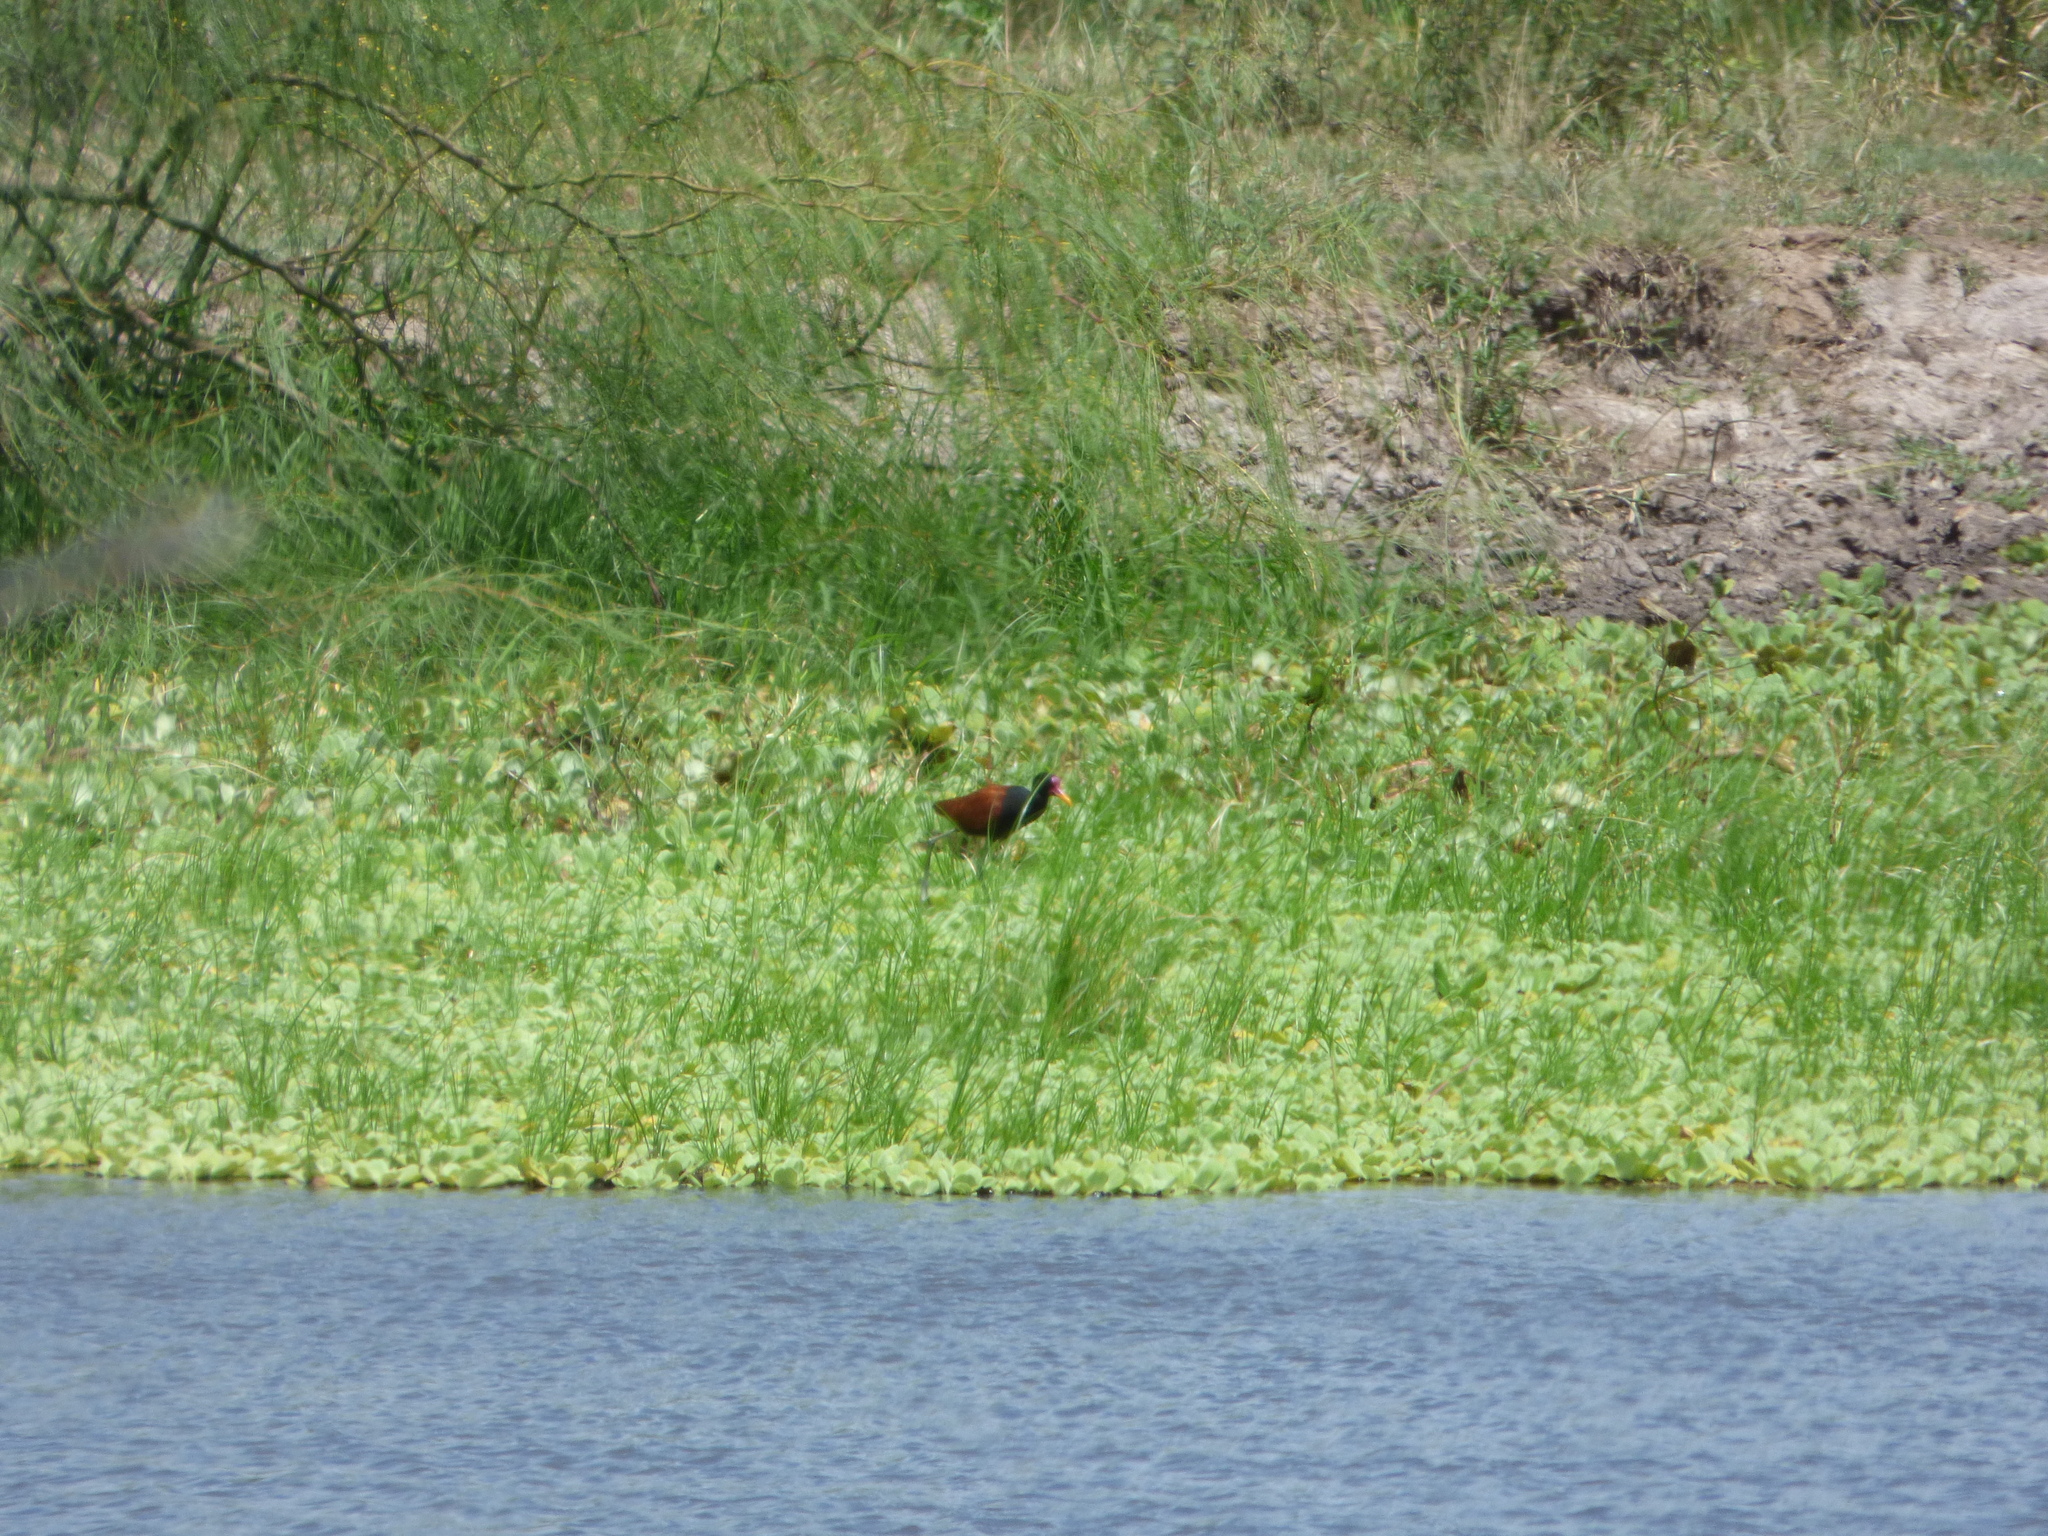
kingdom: Animalia
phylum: Chordata
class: Aves
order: Charadriiformes
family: Jacanidae
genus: Jacana
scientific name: Jacana jacana
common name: Wattled jacana
